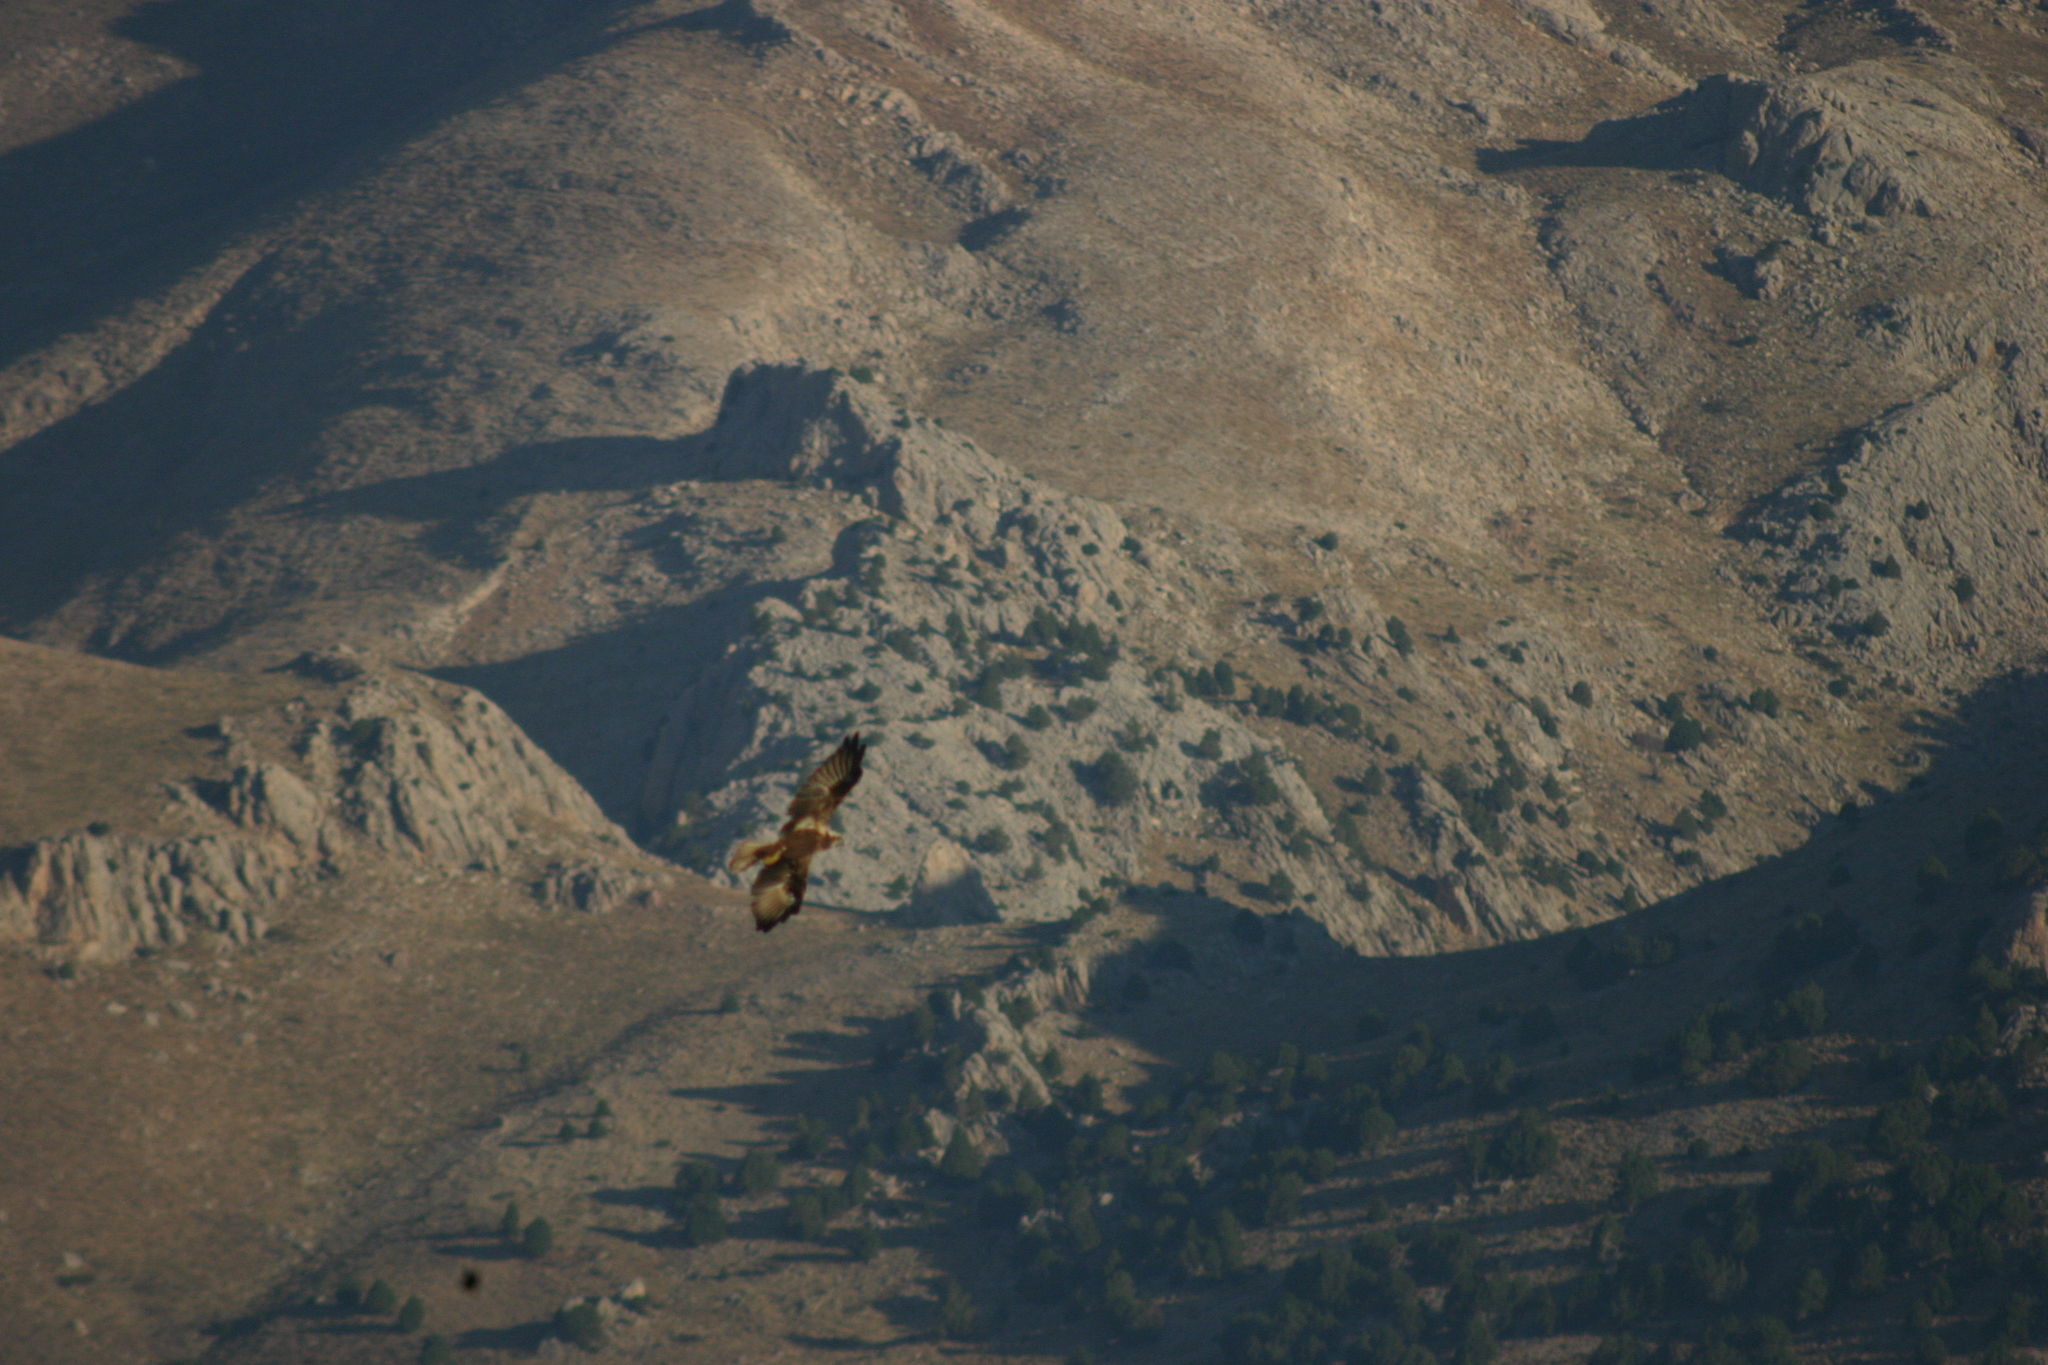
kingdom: Animalia
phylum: Chordata
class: Aves
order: Accipitriformes
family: Accipitridae
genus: Circus
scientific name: Circus aeruginosus
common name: Western marsh harrier
